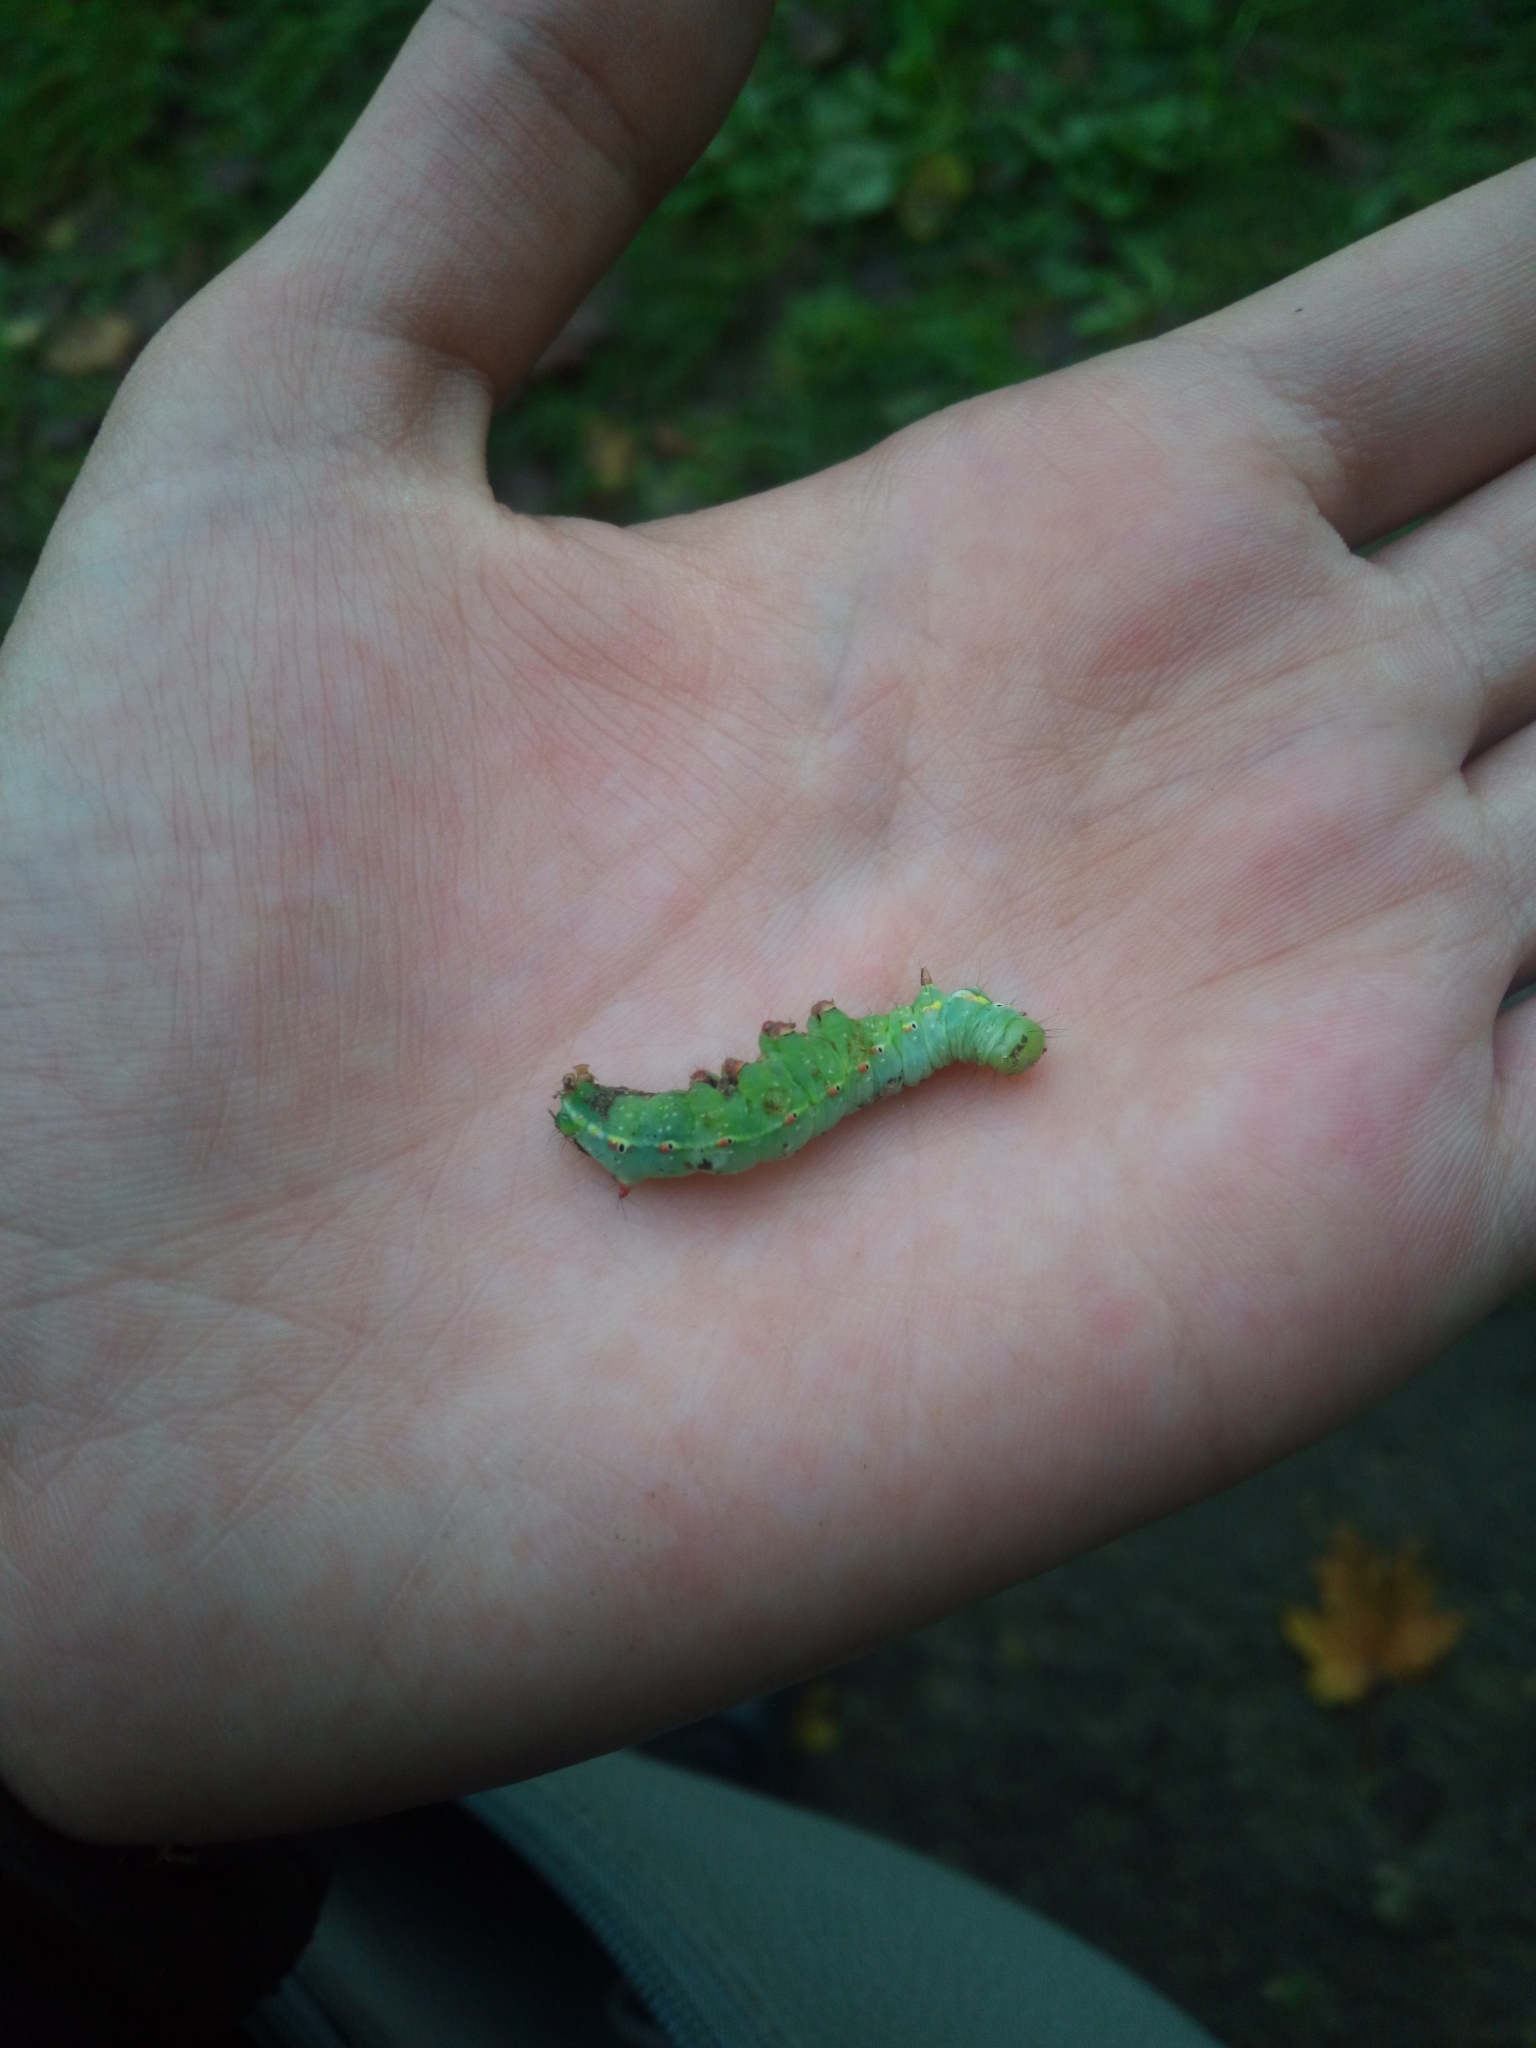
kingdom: Animalia
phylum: Arthropoda
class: Insecta
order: Lepidoptera
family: Notodontidae
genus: Ptilodon
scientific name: Ptilodon capucina
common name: Coxcomb prominent
